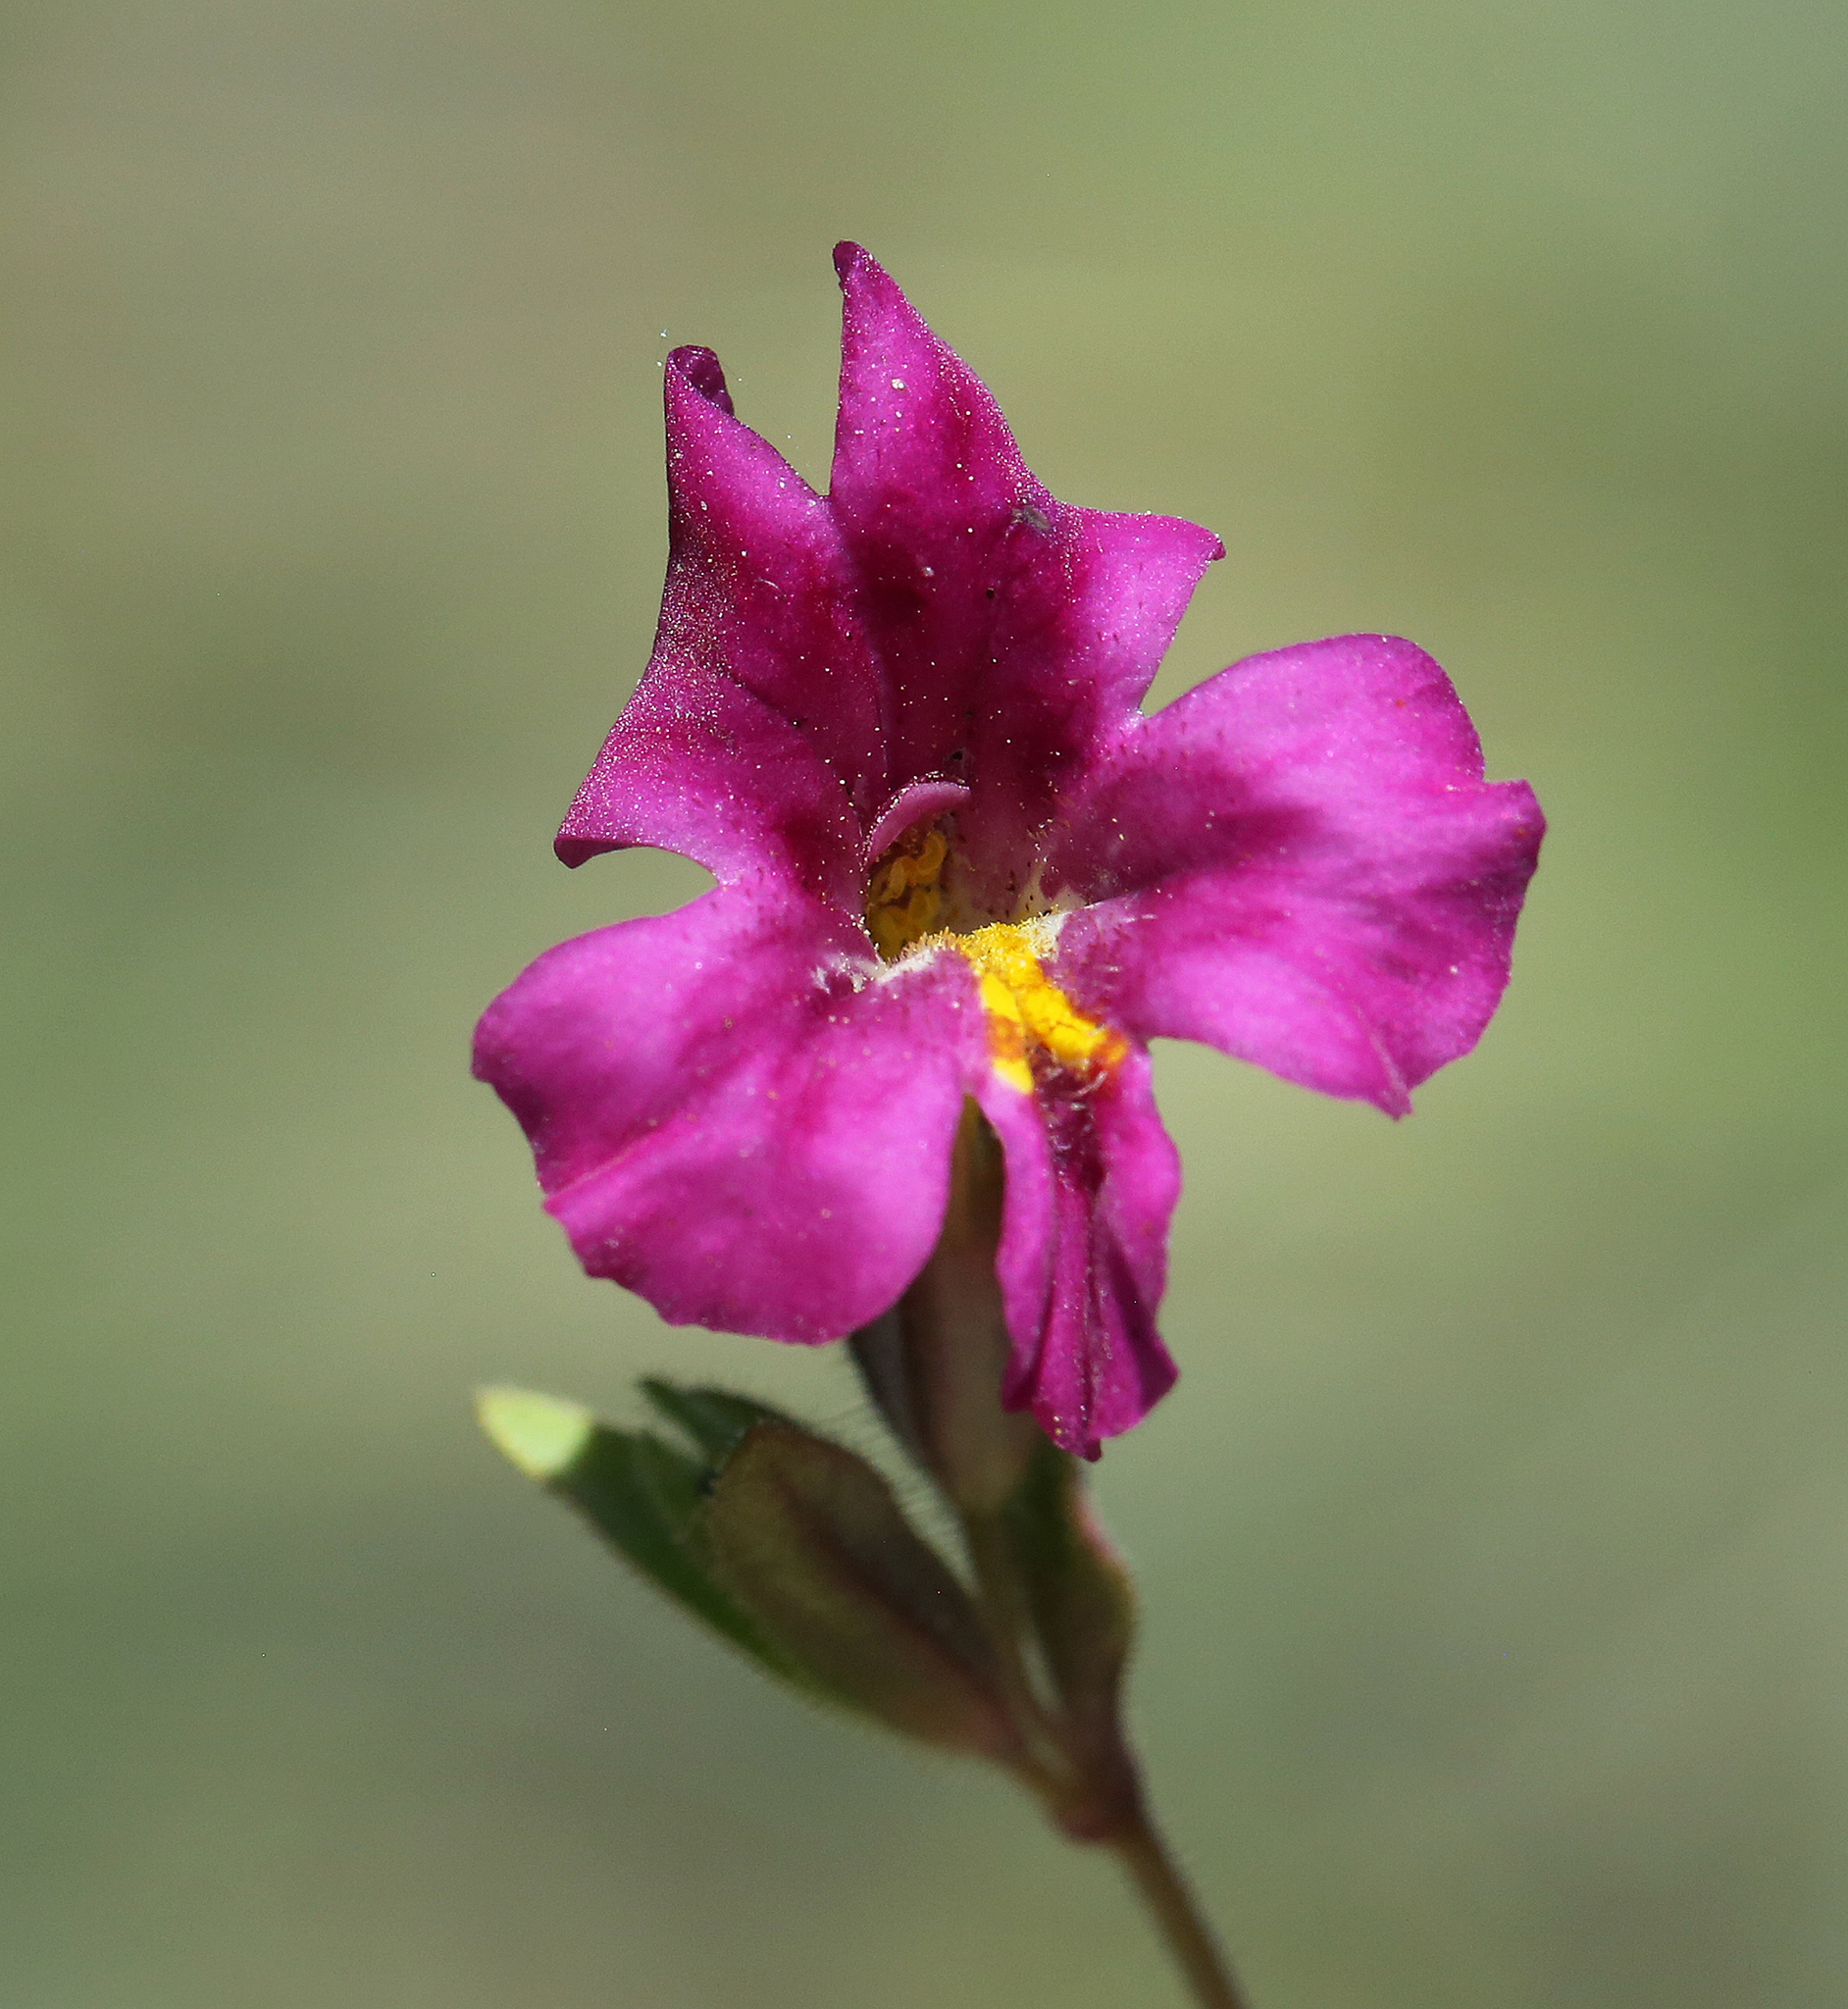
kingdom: Plantae
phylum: Tracheophyta
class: Magnoliopsida
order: Lamiales
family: Phrymaceae
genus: Diplacus
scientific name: Diplacus mephiticus
